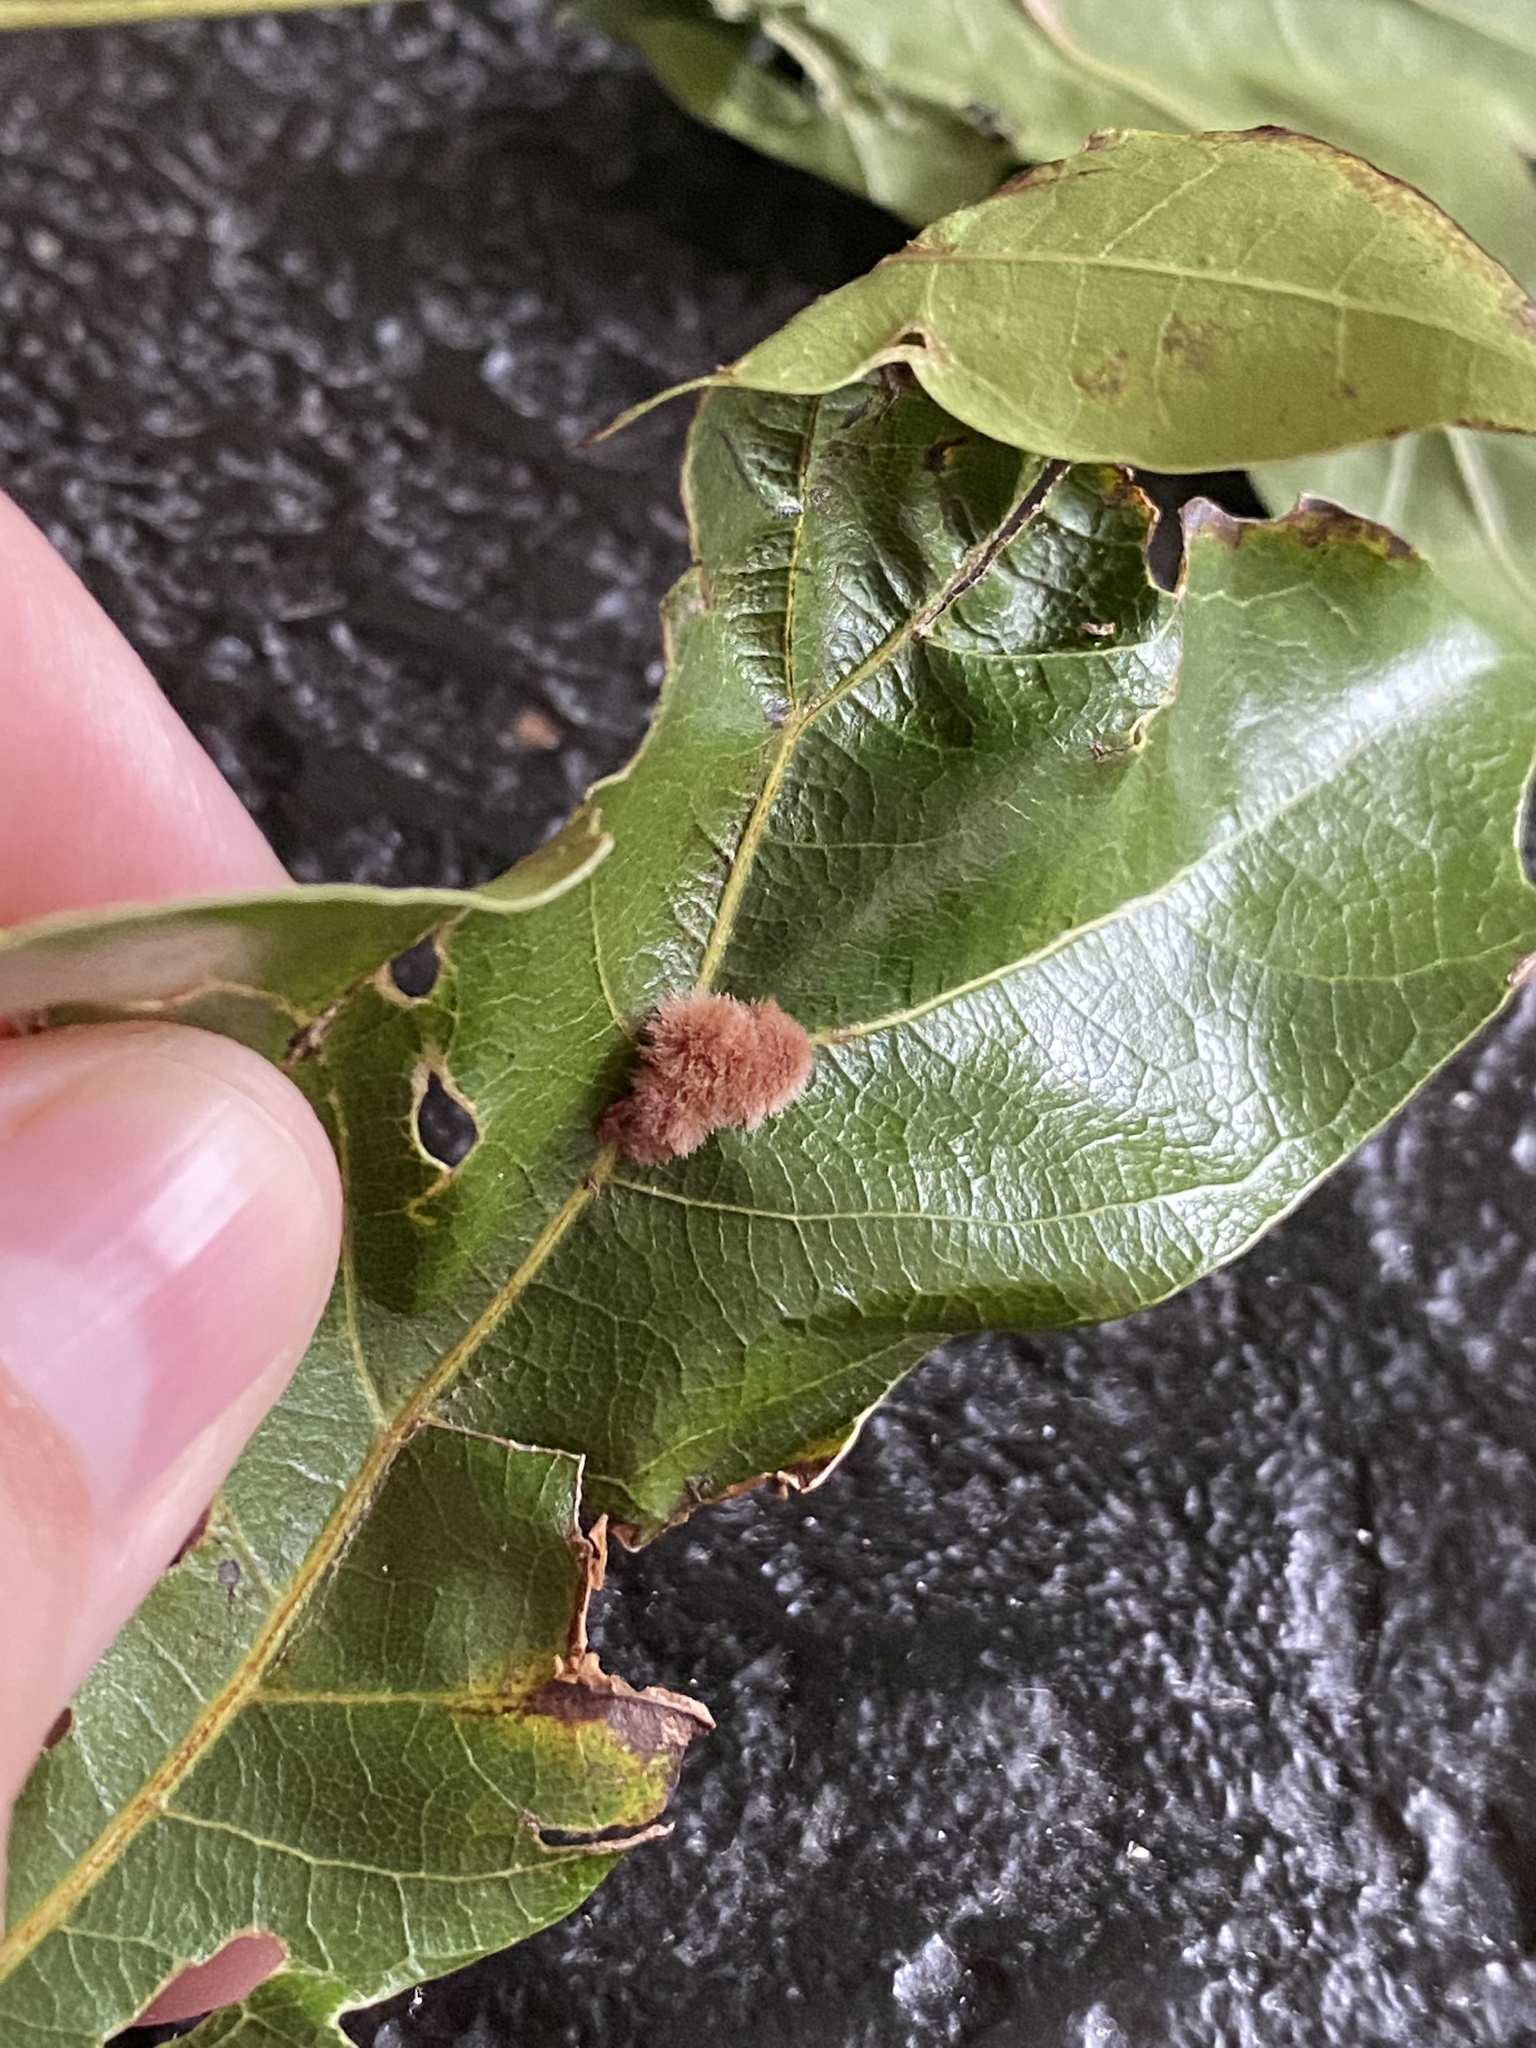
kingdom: Animalia
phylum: Arthropoda
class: Insecta
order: Hymenoptera
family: Cynipidae
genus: Callirhytis
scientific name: Callirhytis
